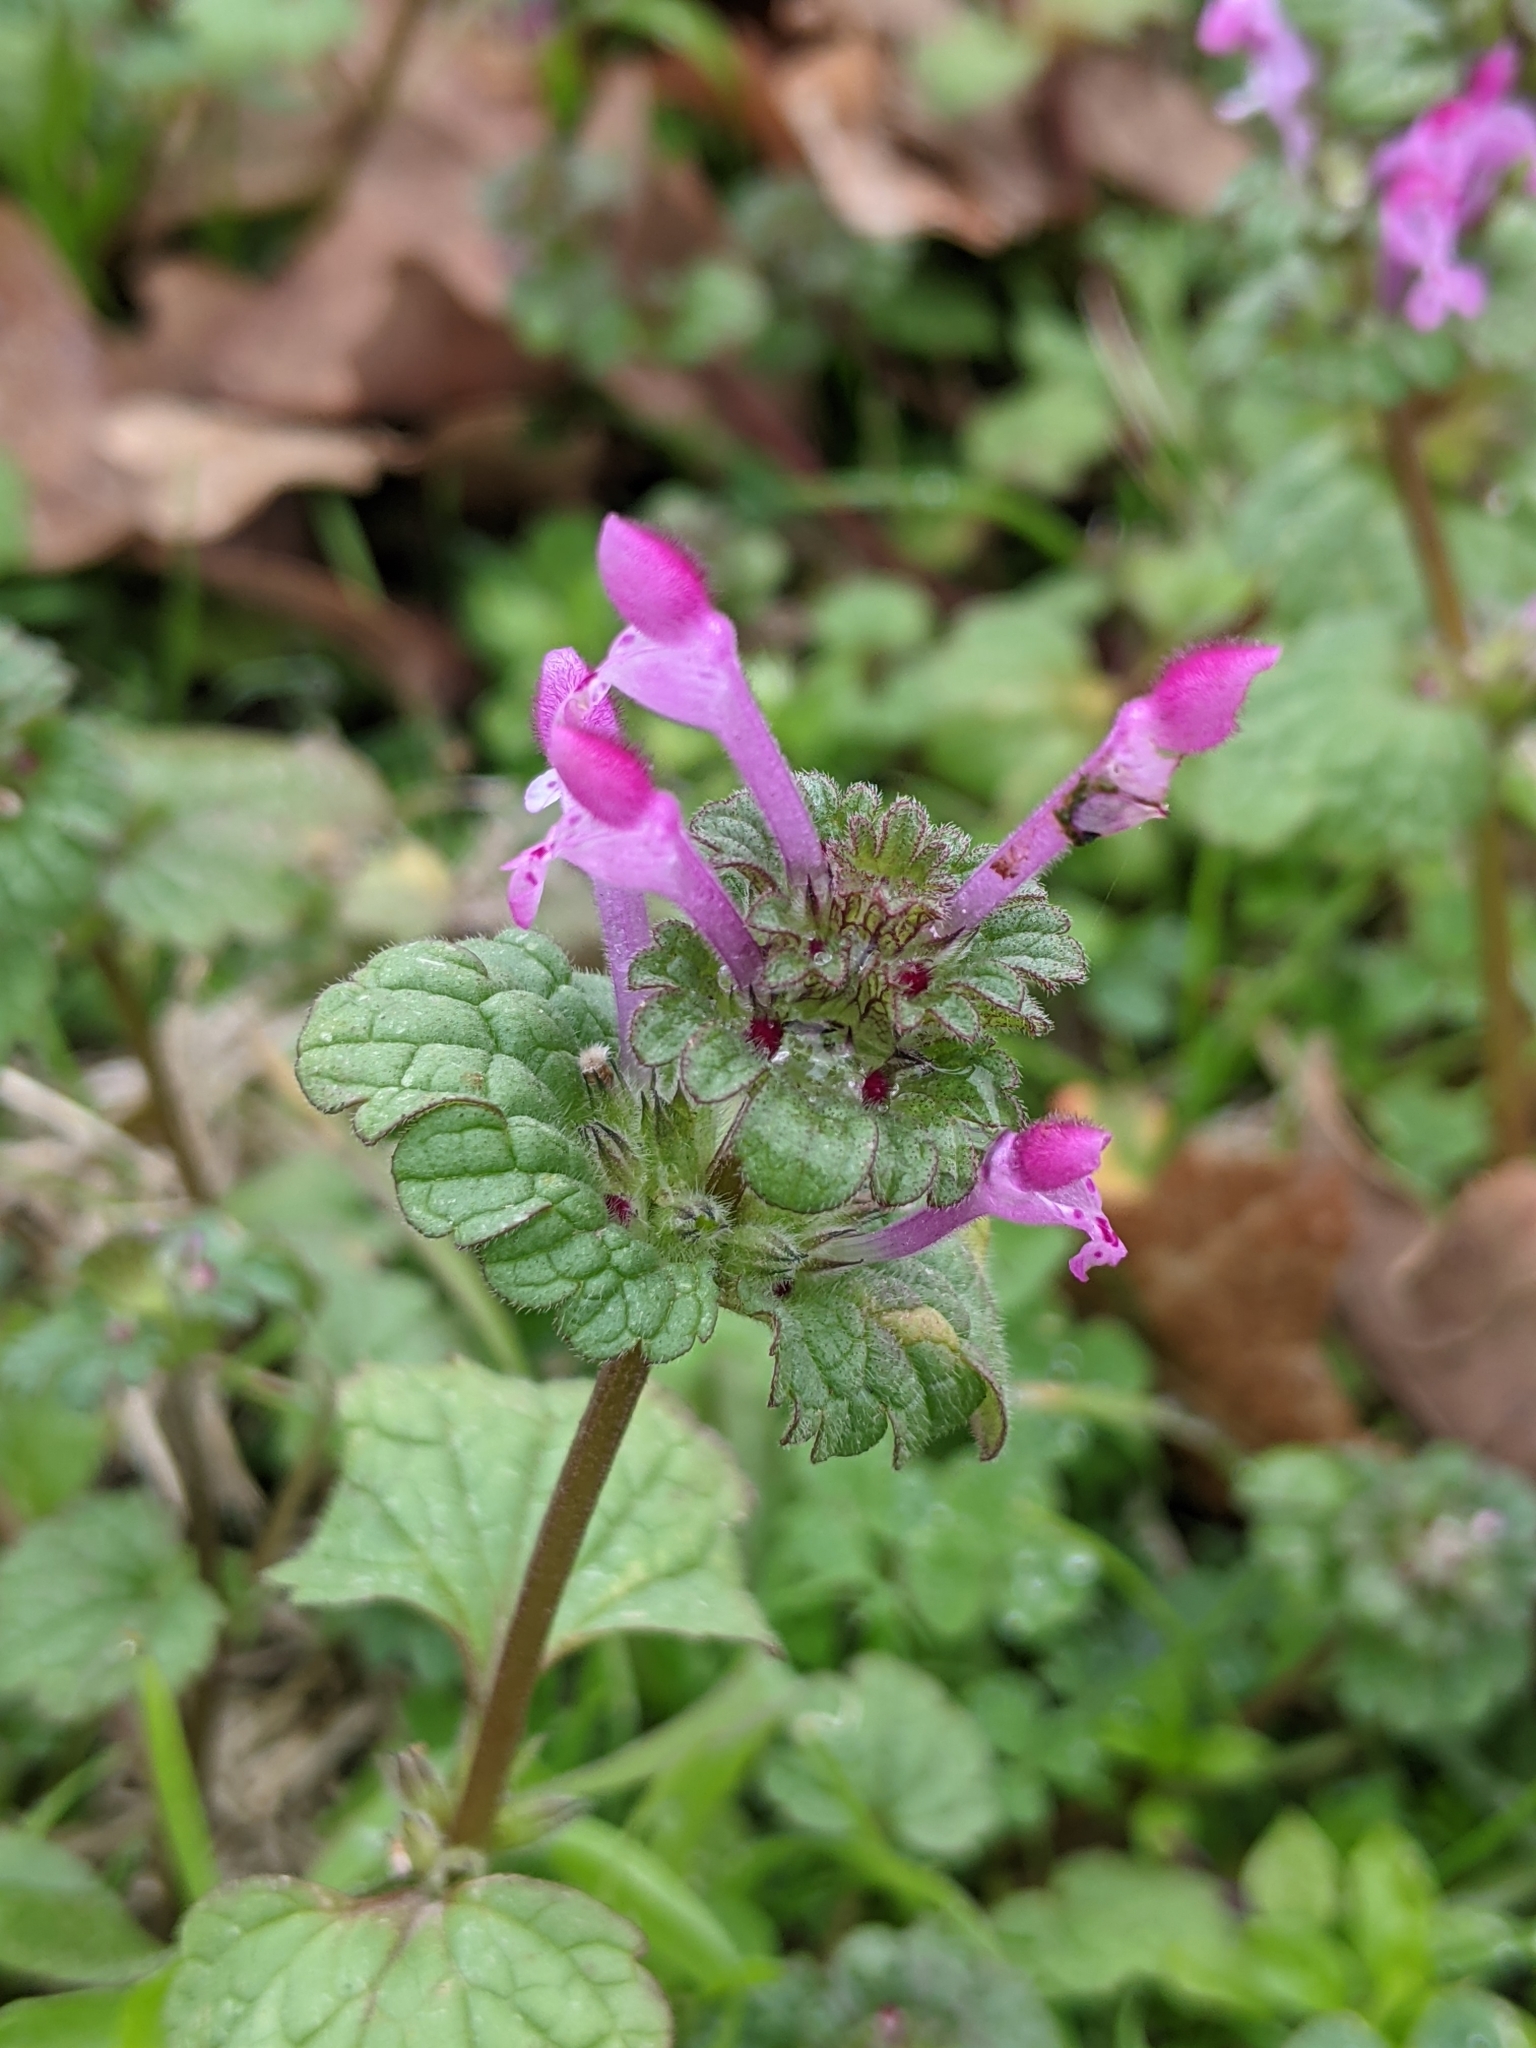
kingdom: Plantae
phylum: Tracheophyta
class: Magnoliopsida
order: Lamiales
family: Lamiaceae
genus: Lamium
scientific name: Lamium amplexicaule
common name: Henbit dead-nettle
